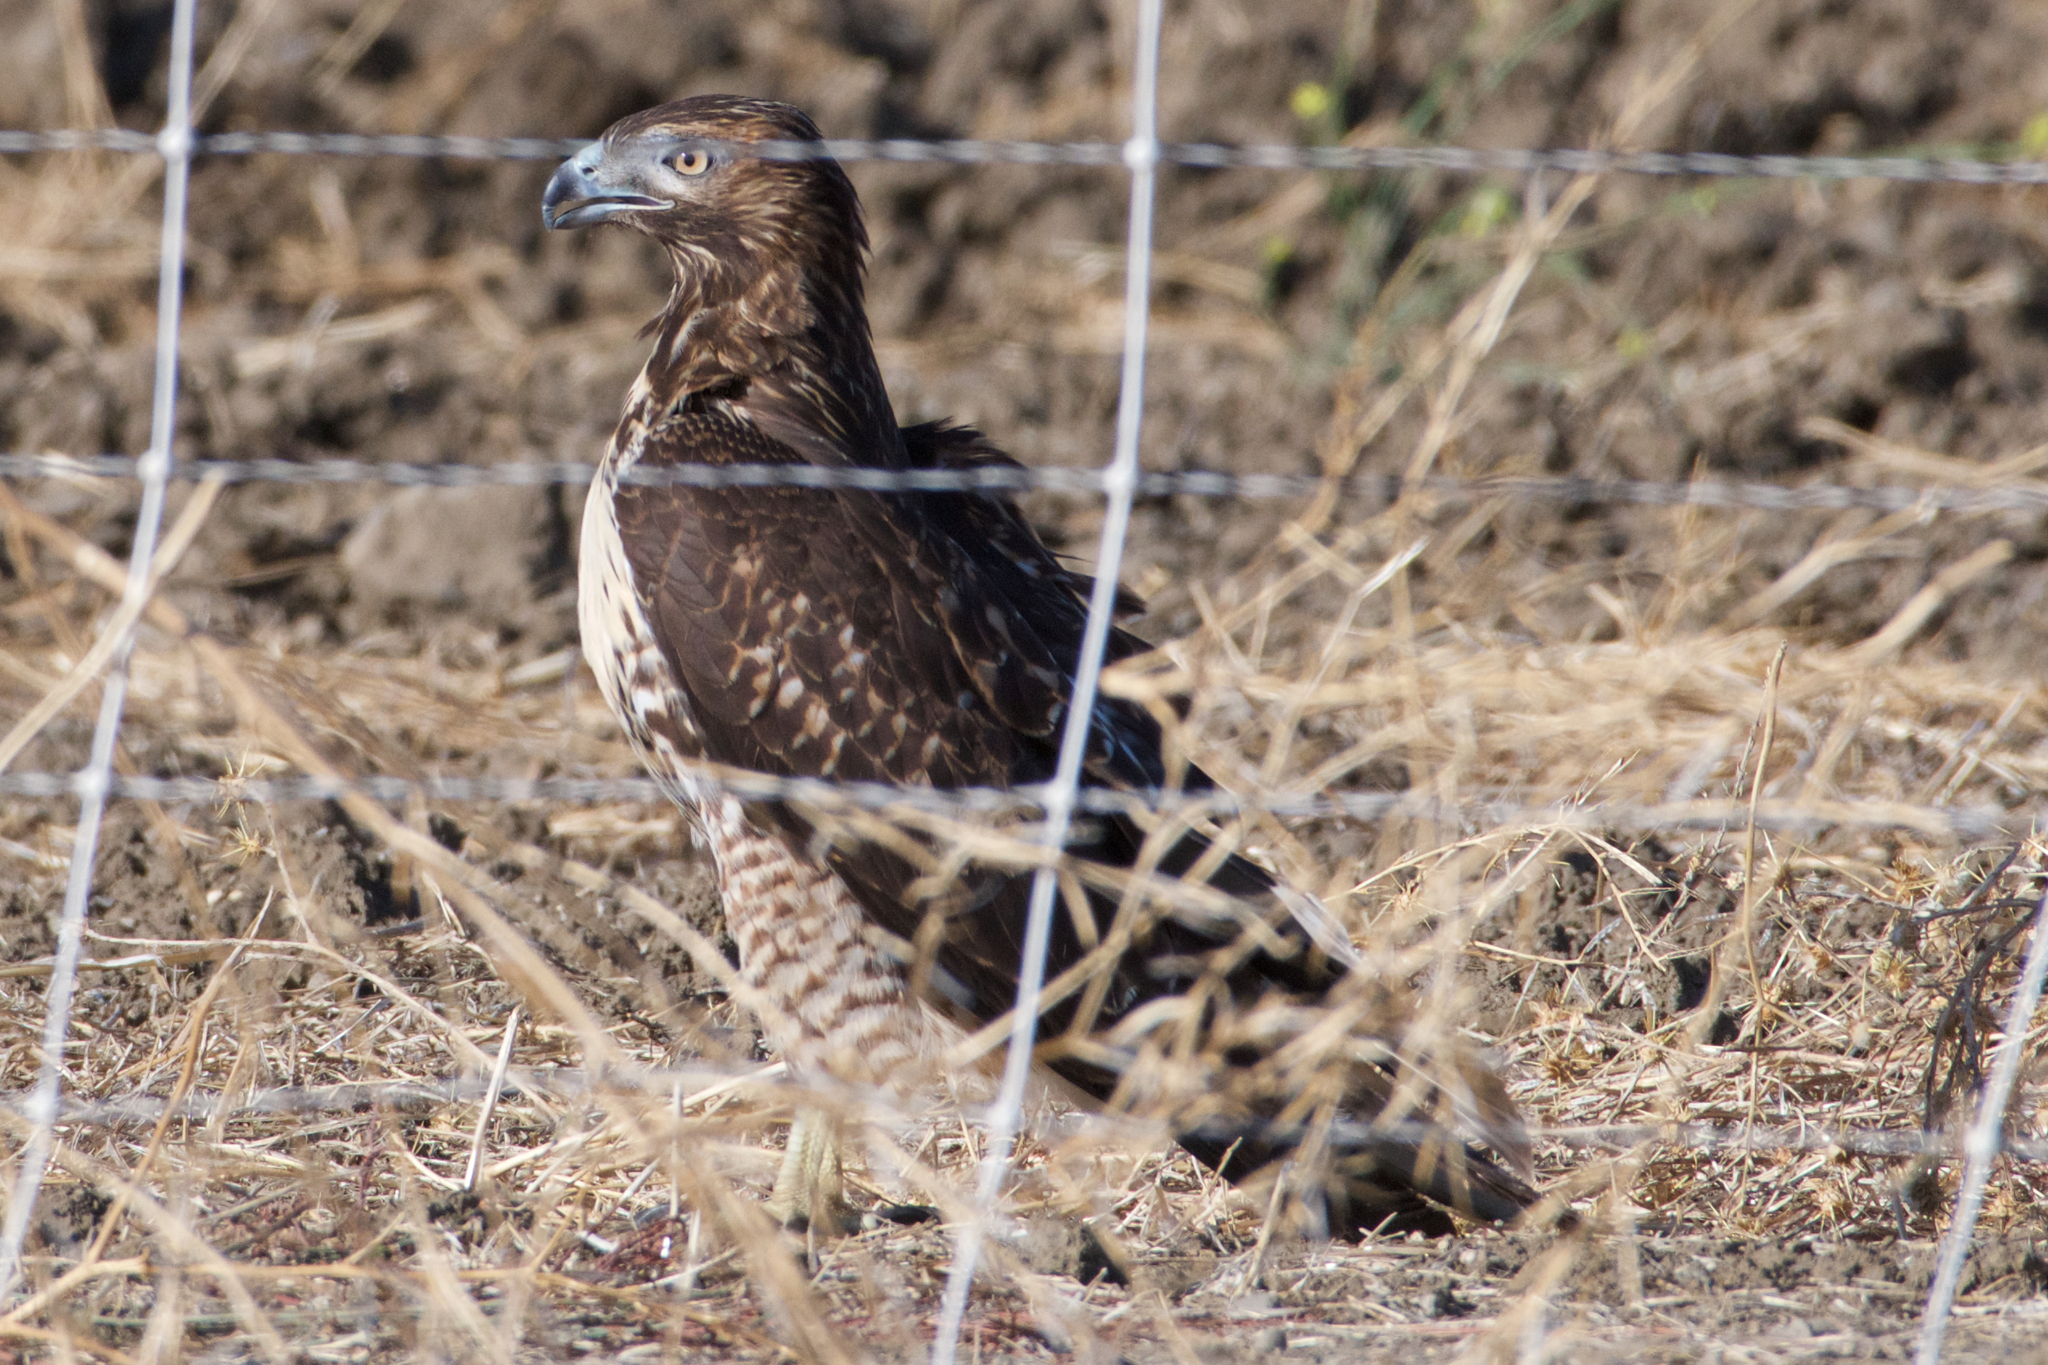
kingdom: Animalia
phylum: Chordata
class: Aves
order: Accipitriformes
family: Accipitridae
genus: Buteo
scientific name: Buteo jamaicensis
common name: Red-tailed hawk
